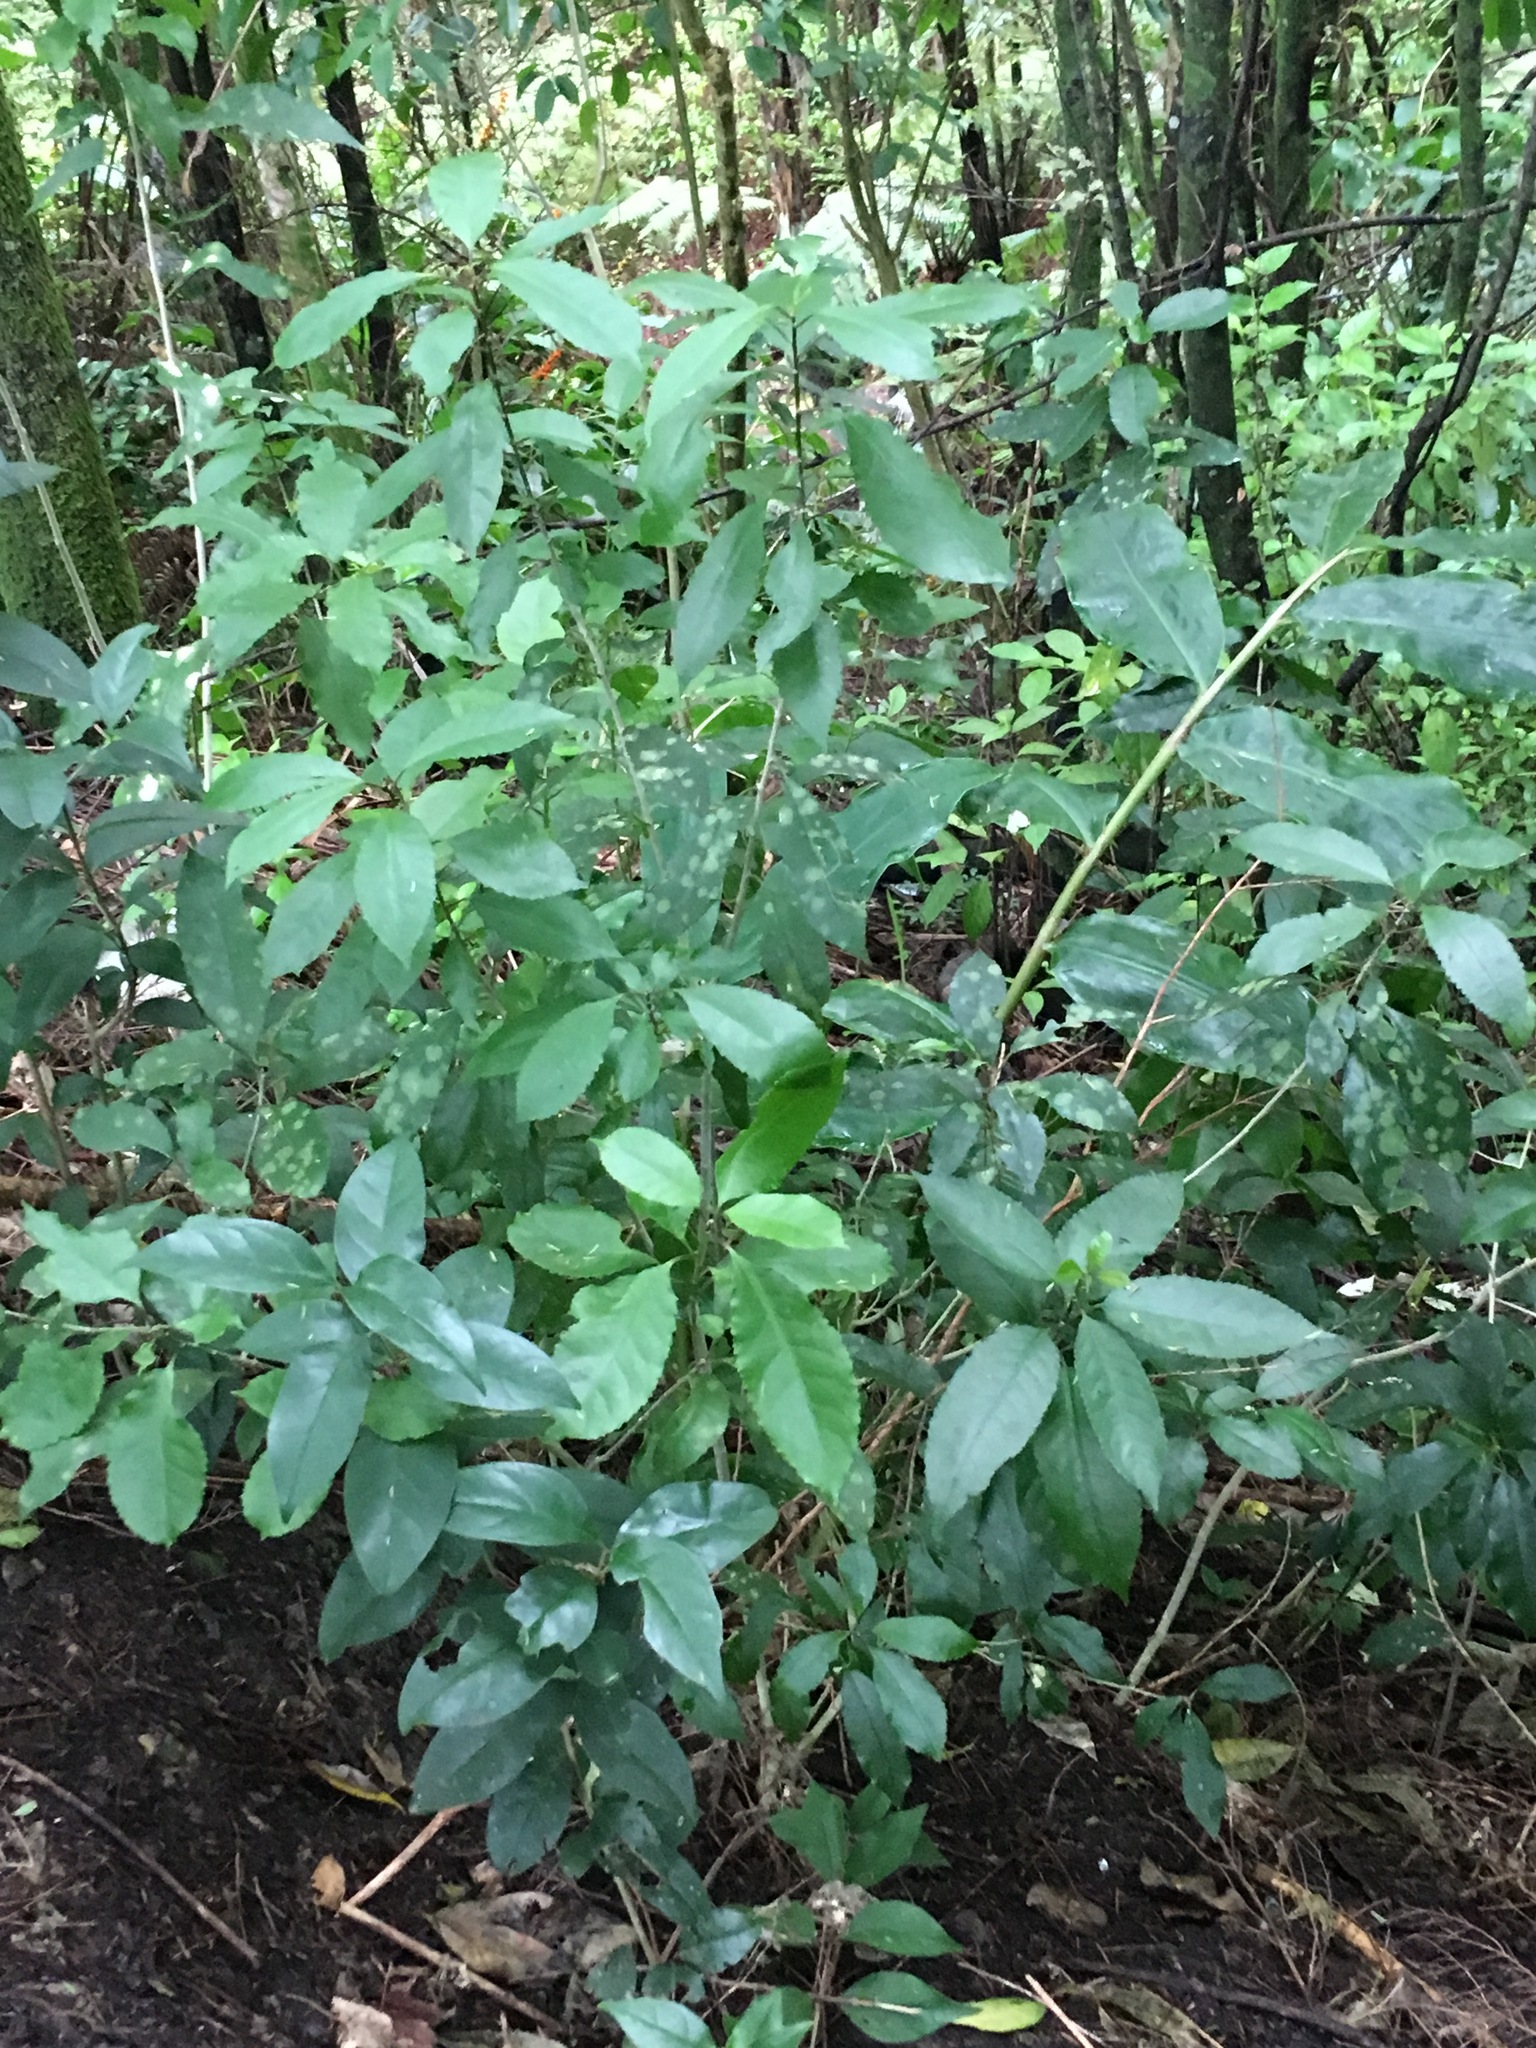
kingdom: Plantae
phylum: Tracheophyta
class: Magnoliopsida
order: Malpighiales
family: Violaceae
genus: Melicytus
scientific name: Melicytus ramiflorus
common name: Mahoe
